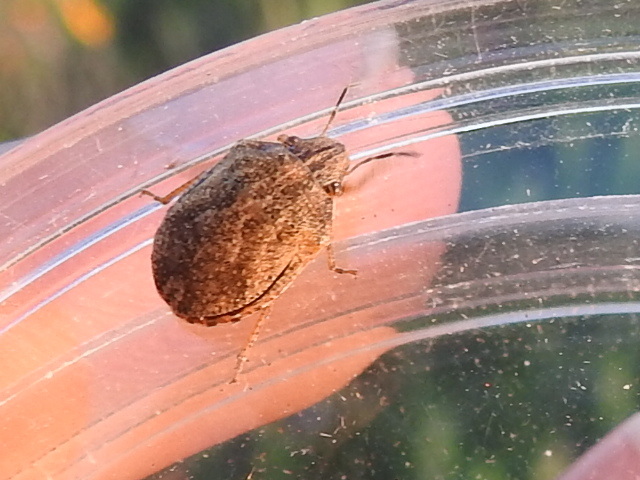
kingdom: Animalia
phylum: Arthropoda
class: Insecta
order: Hemiptera
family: Scutelleridae
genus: Sphyrocoris
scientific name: Sphyrocoris obliquus
